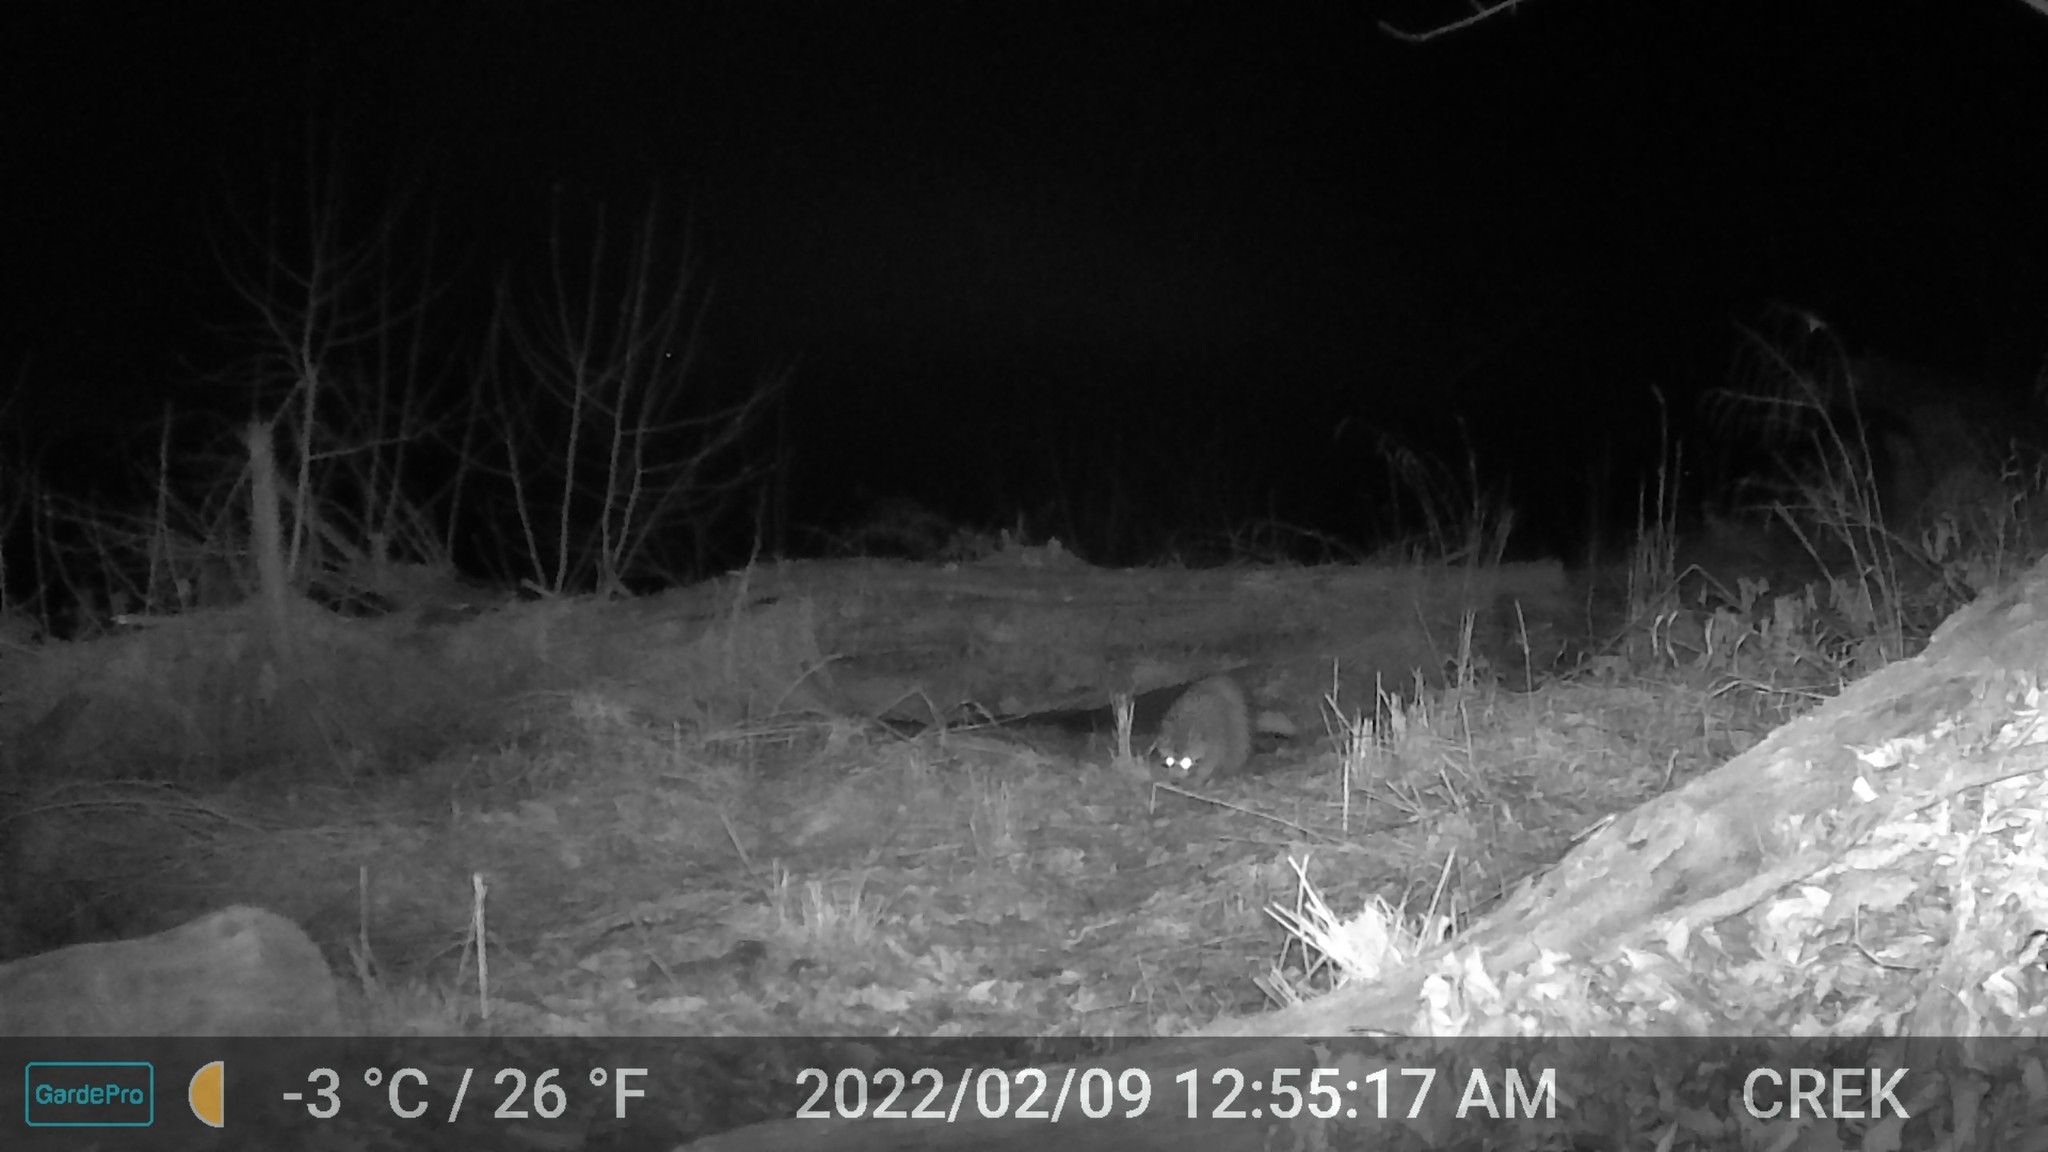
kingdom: Animalia
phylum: Chordata
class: Mammalia
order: Carnivora
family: Procyonidae
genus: Procyon
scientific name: Procyon lotor
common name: Raccoon
